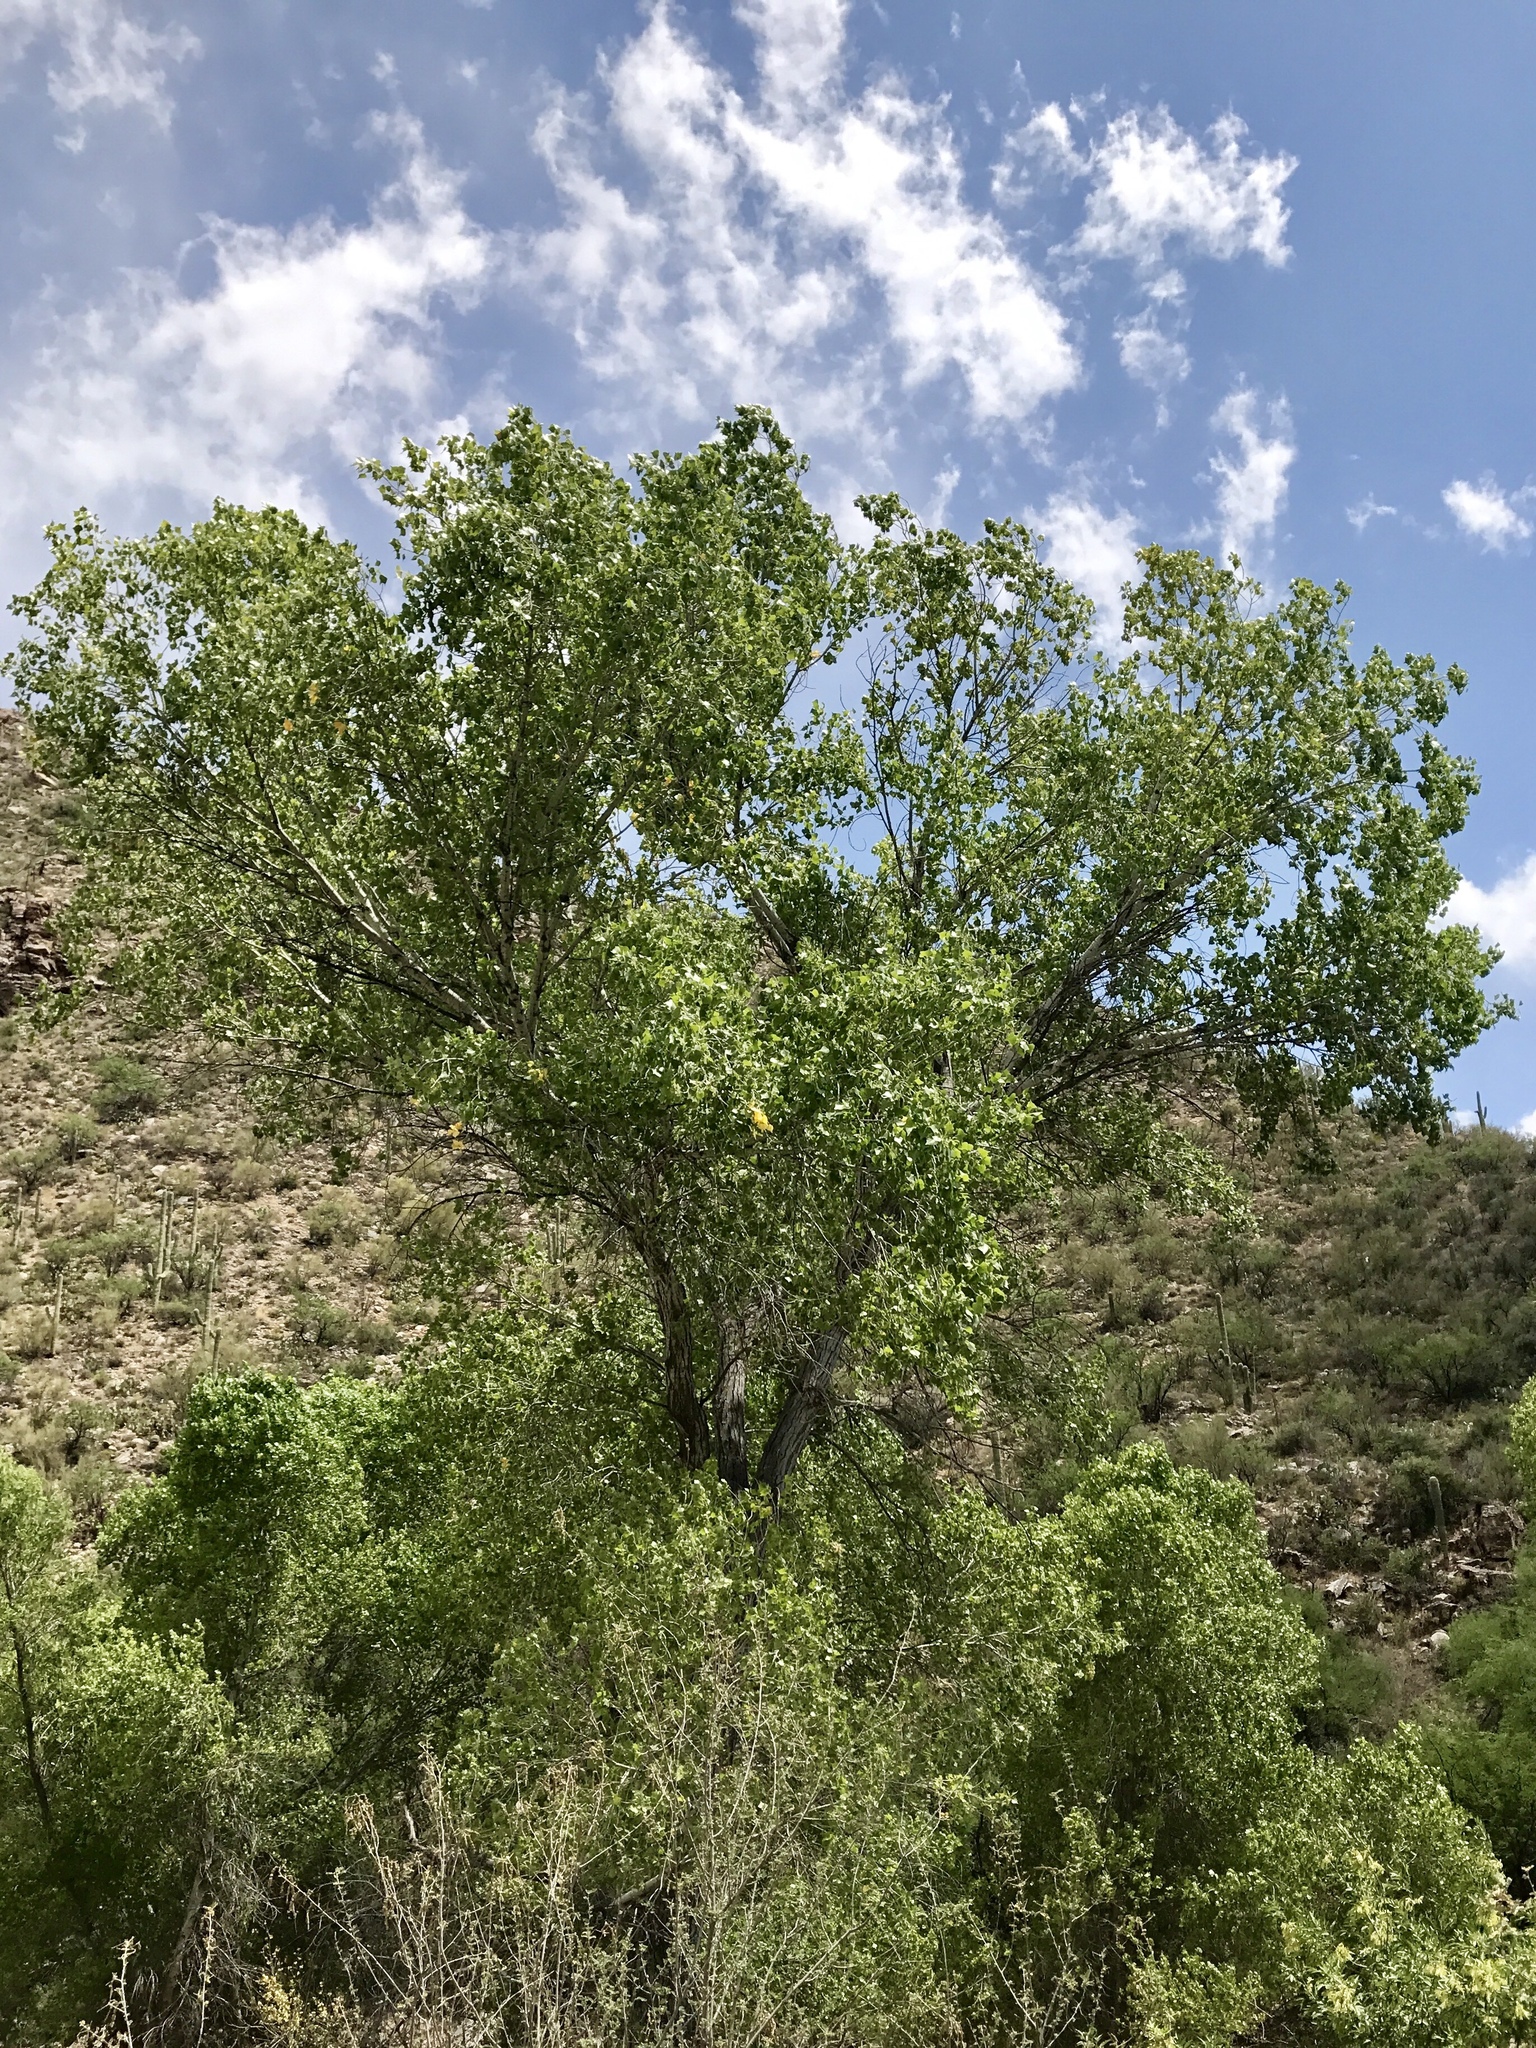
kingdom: Plantae
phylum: Tracheophyta
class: Magnoliopsida
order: Malpighiales
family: Salicaceae
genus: Populus
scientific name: Populus fremontii
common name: Fremont's cottonwood
